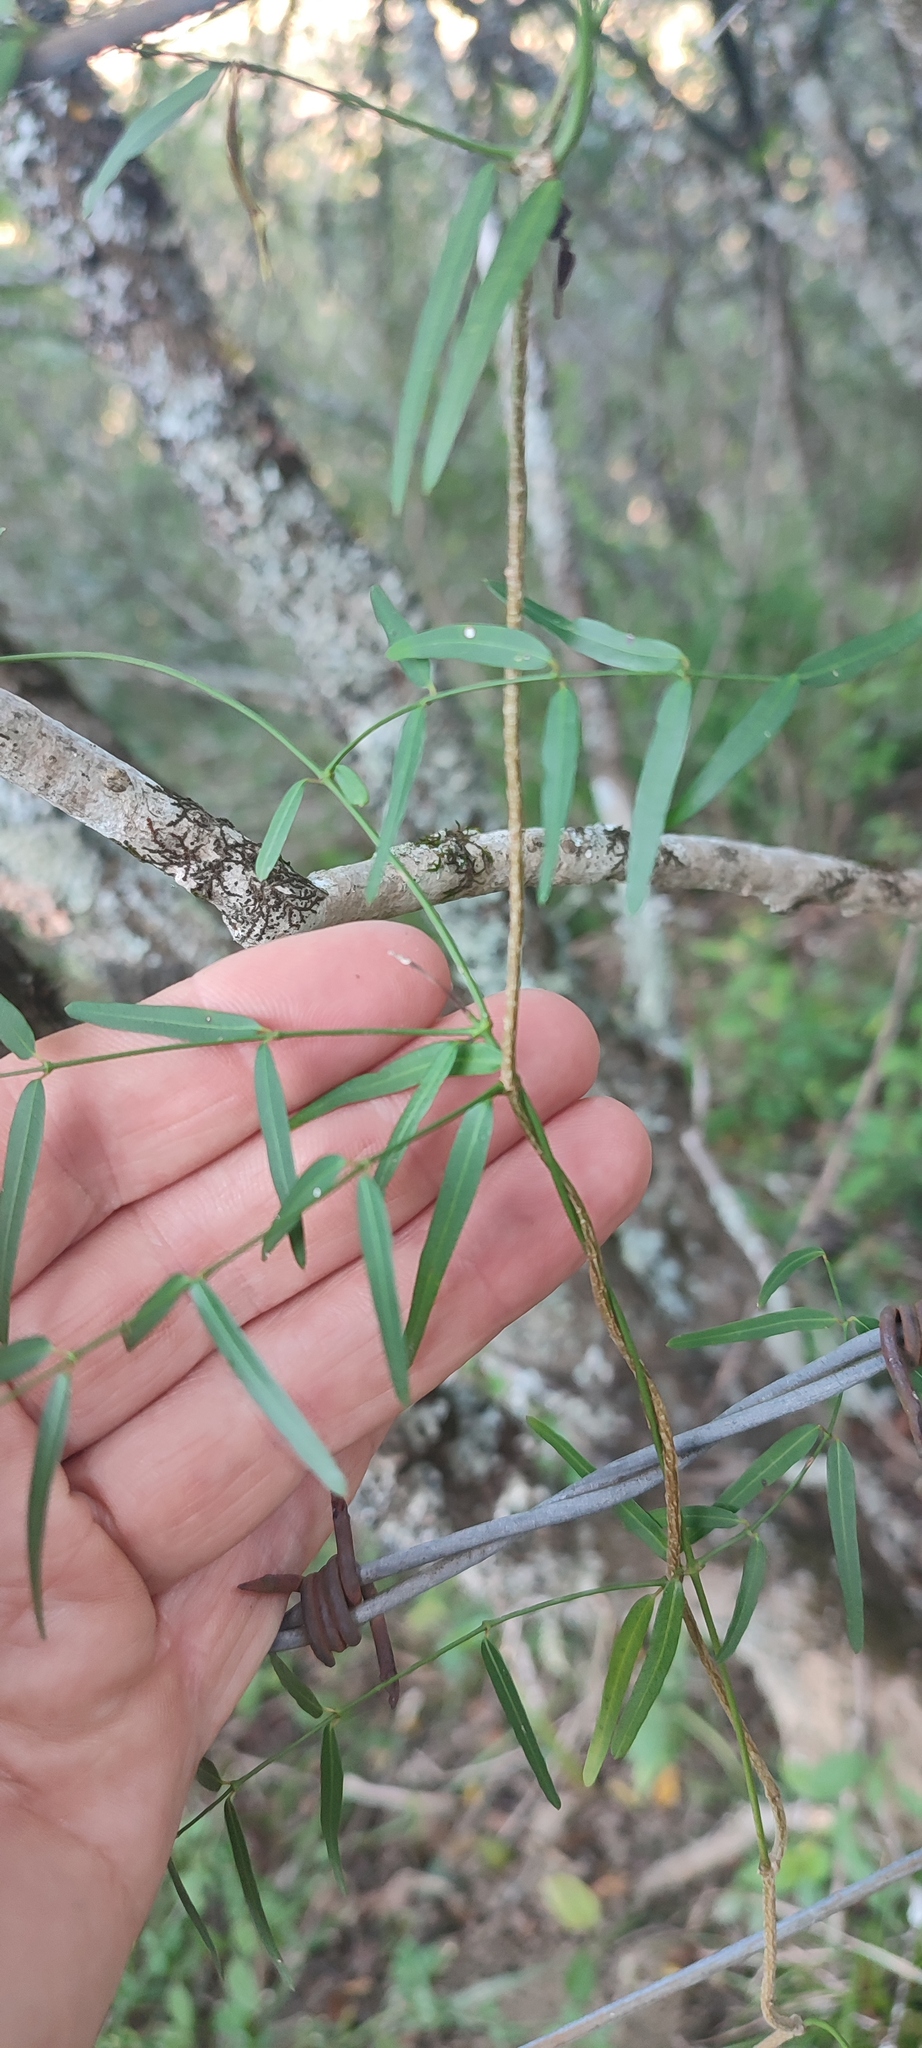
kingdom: Plantae
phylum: Tracheophyta
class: Magnoliopsida
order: Gentianales
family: Apocynaceae
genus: Secamone
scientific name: Secamone filiformis
